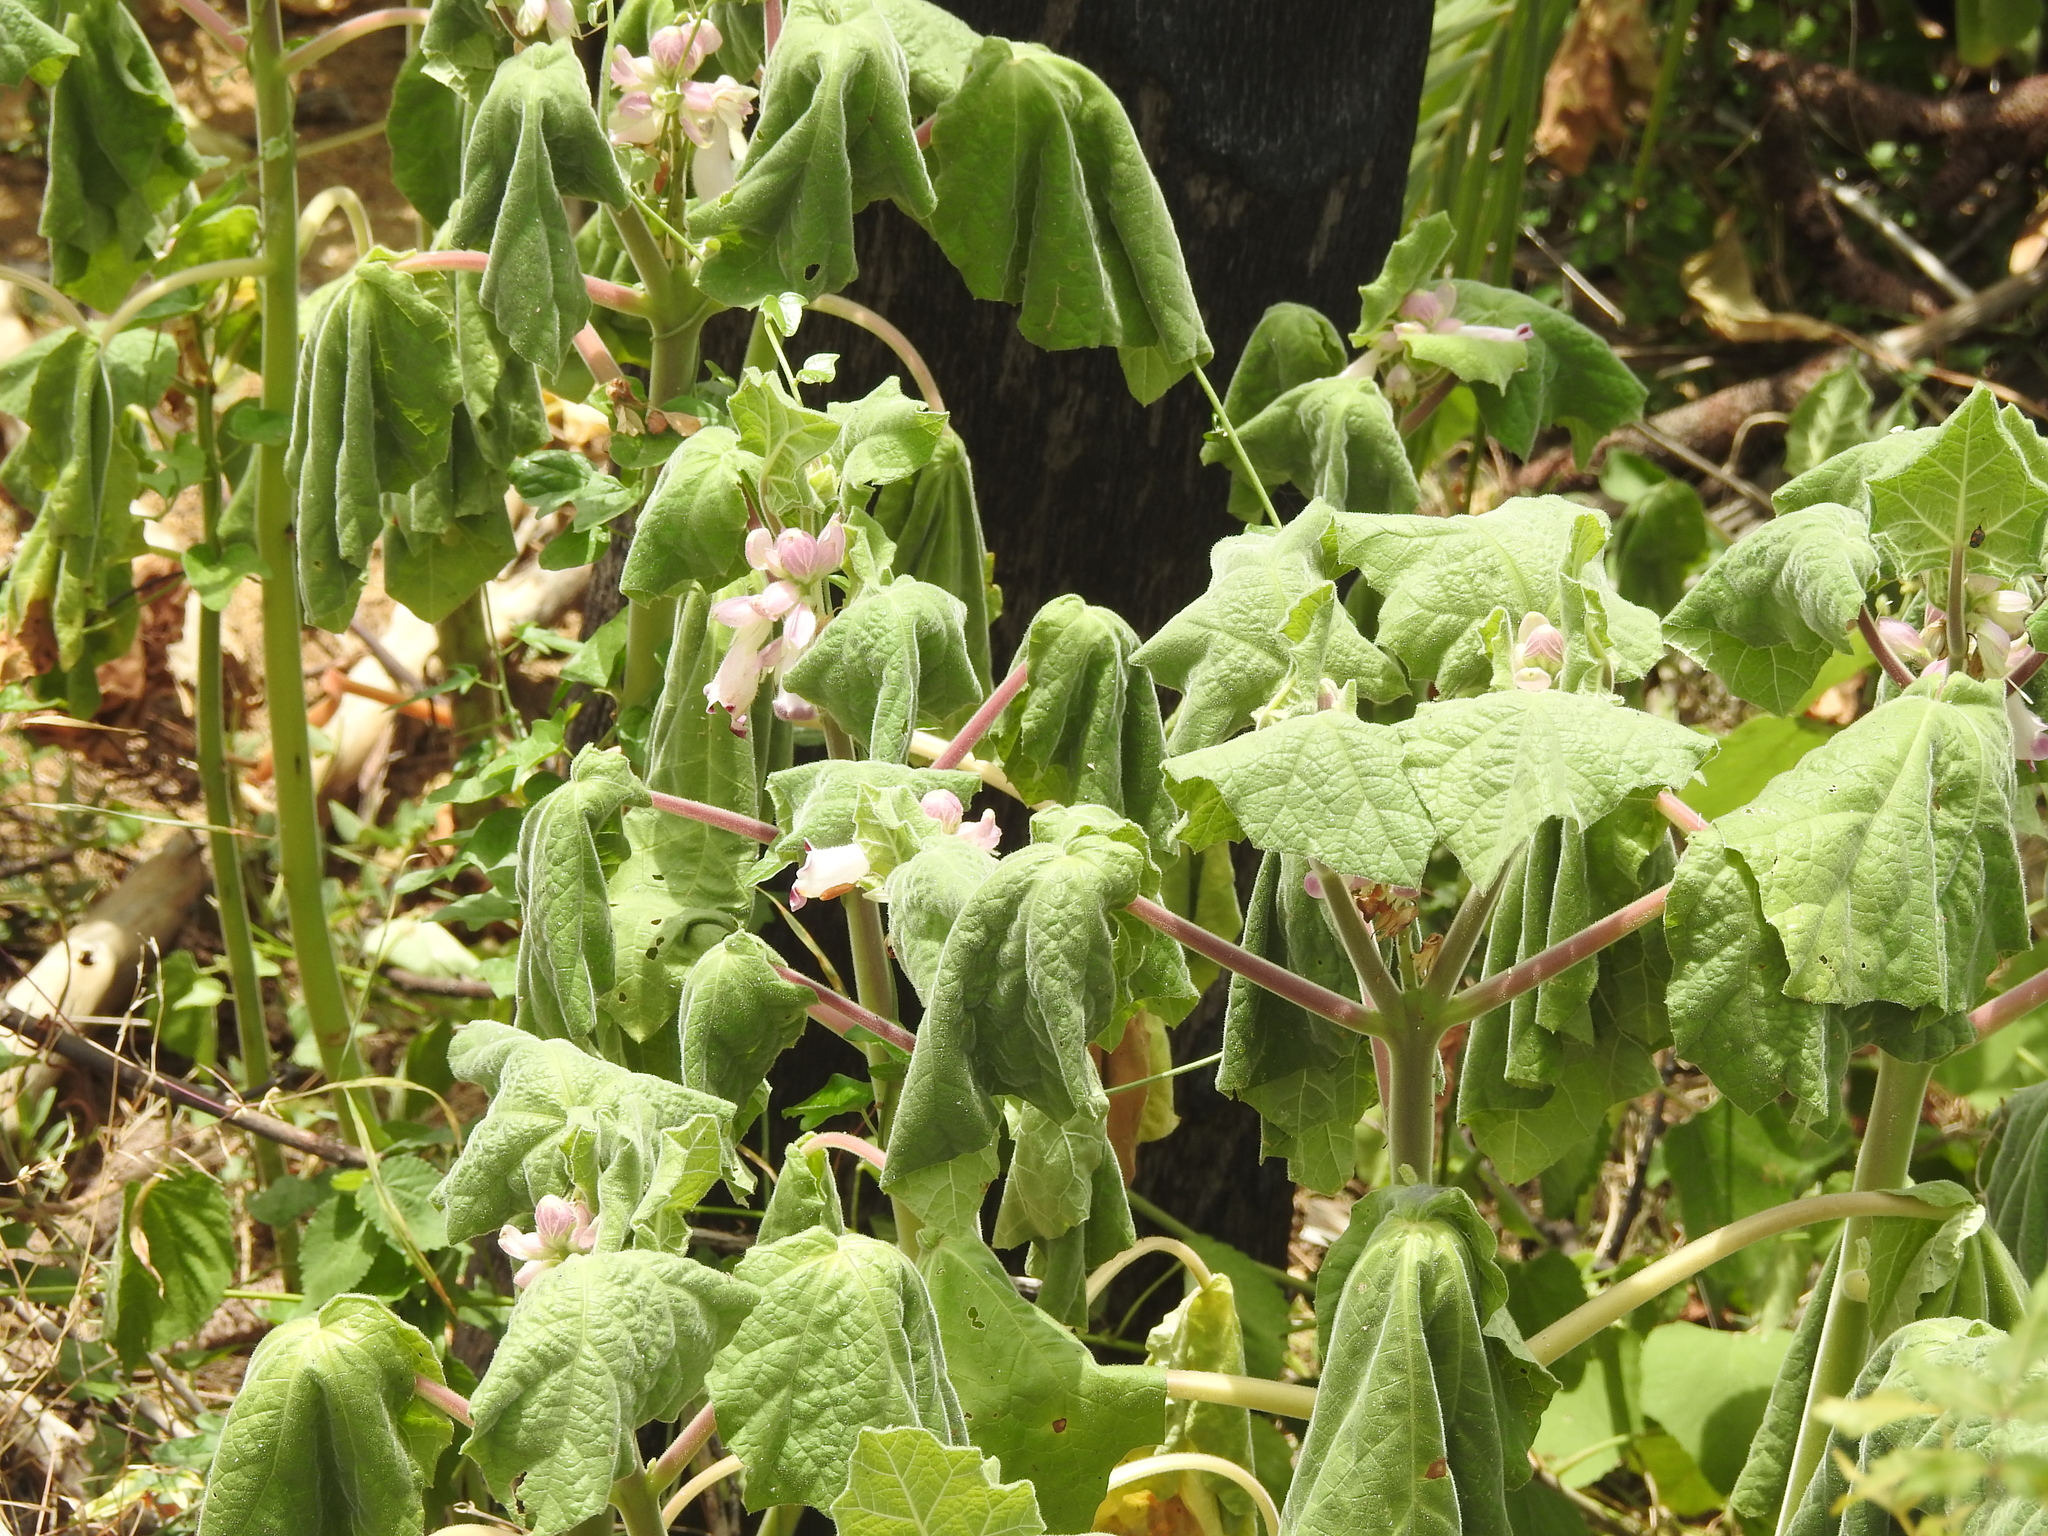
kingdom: Plantae
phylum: Tracheophyta
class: Magnoliopsida
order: Lamiales
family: Martyniaceae
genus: Martynia
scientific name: Martynia annua
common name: Tiger's-claw
